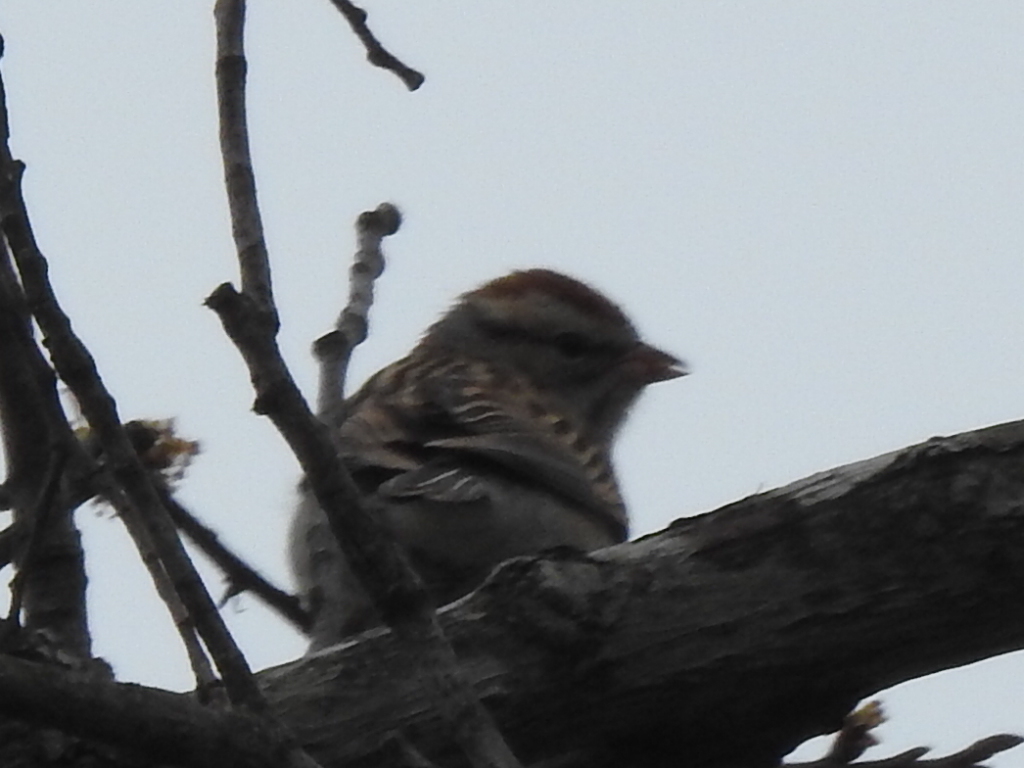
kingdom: Animalia
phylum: Chordata
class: Aves
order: Passeriformes
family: Passerellidae
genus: Spizella
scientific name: Spizella passerina
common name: Chipping sparrow
